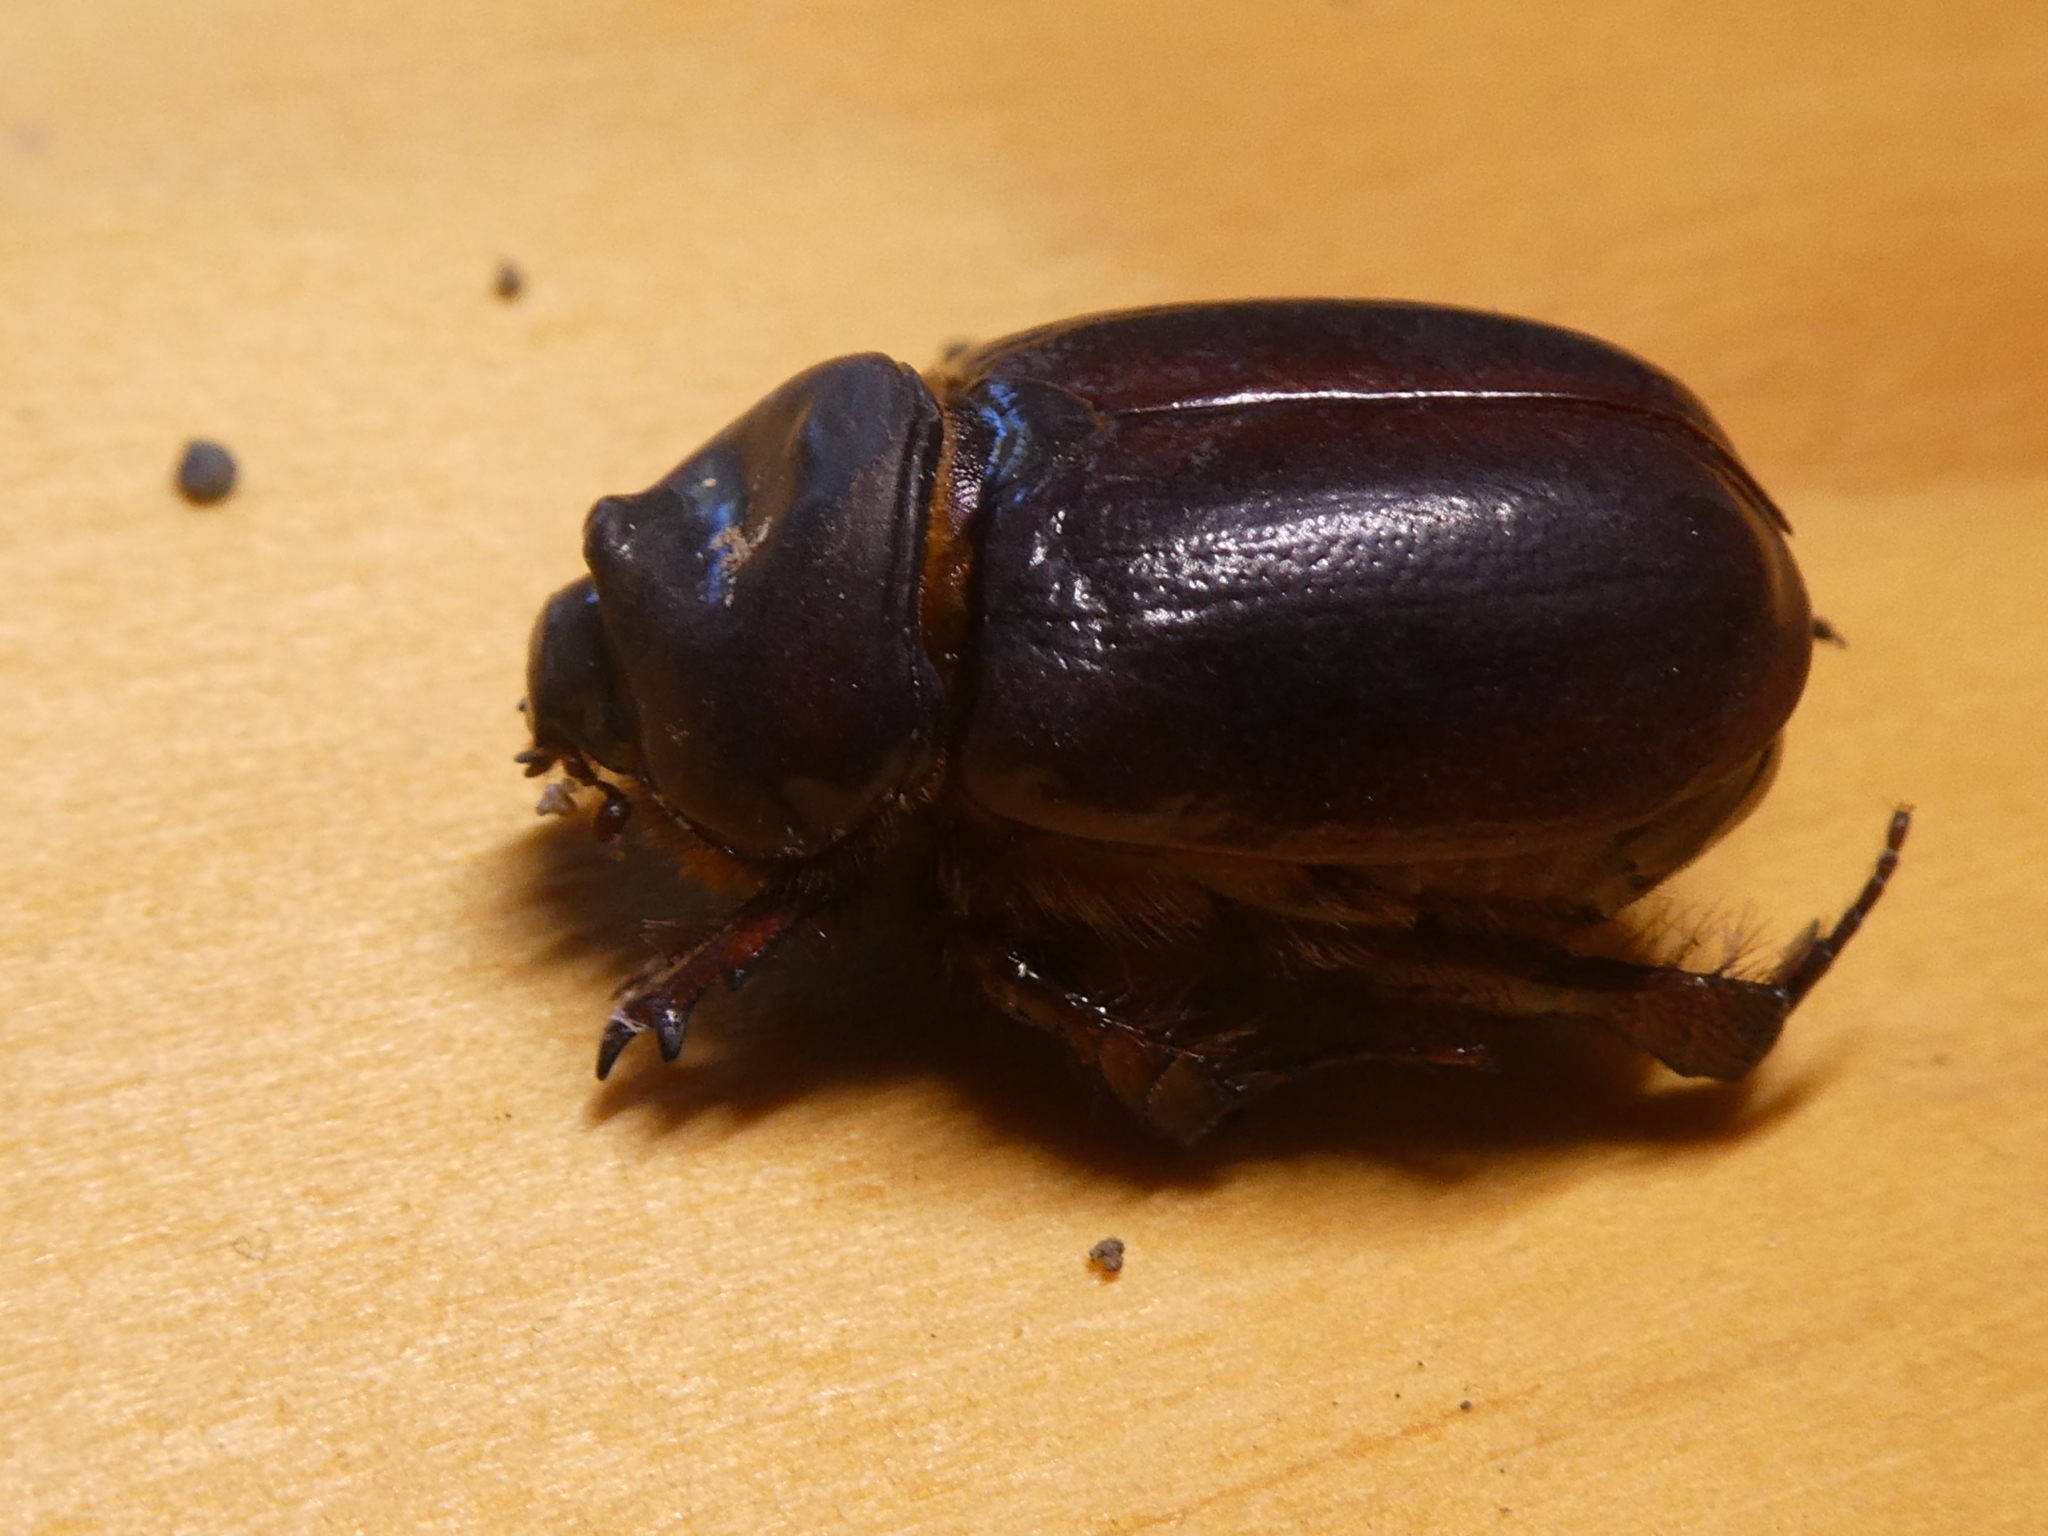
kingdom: Animalia
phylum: Arthropoda
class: Insecta
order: Coleoptera
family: Scarabaeidae
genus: Pericoptus
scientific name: Pericoptus truncatus
